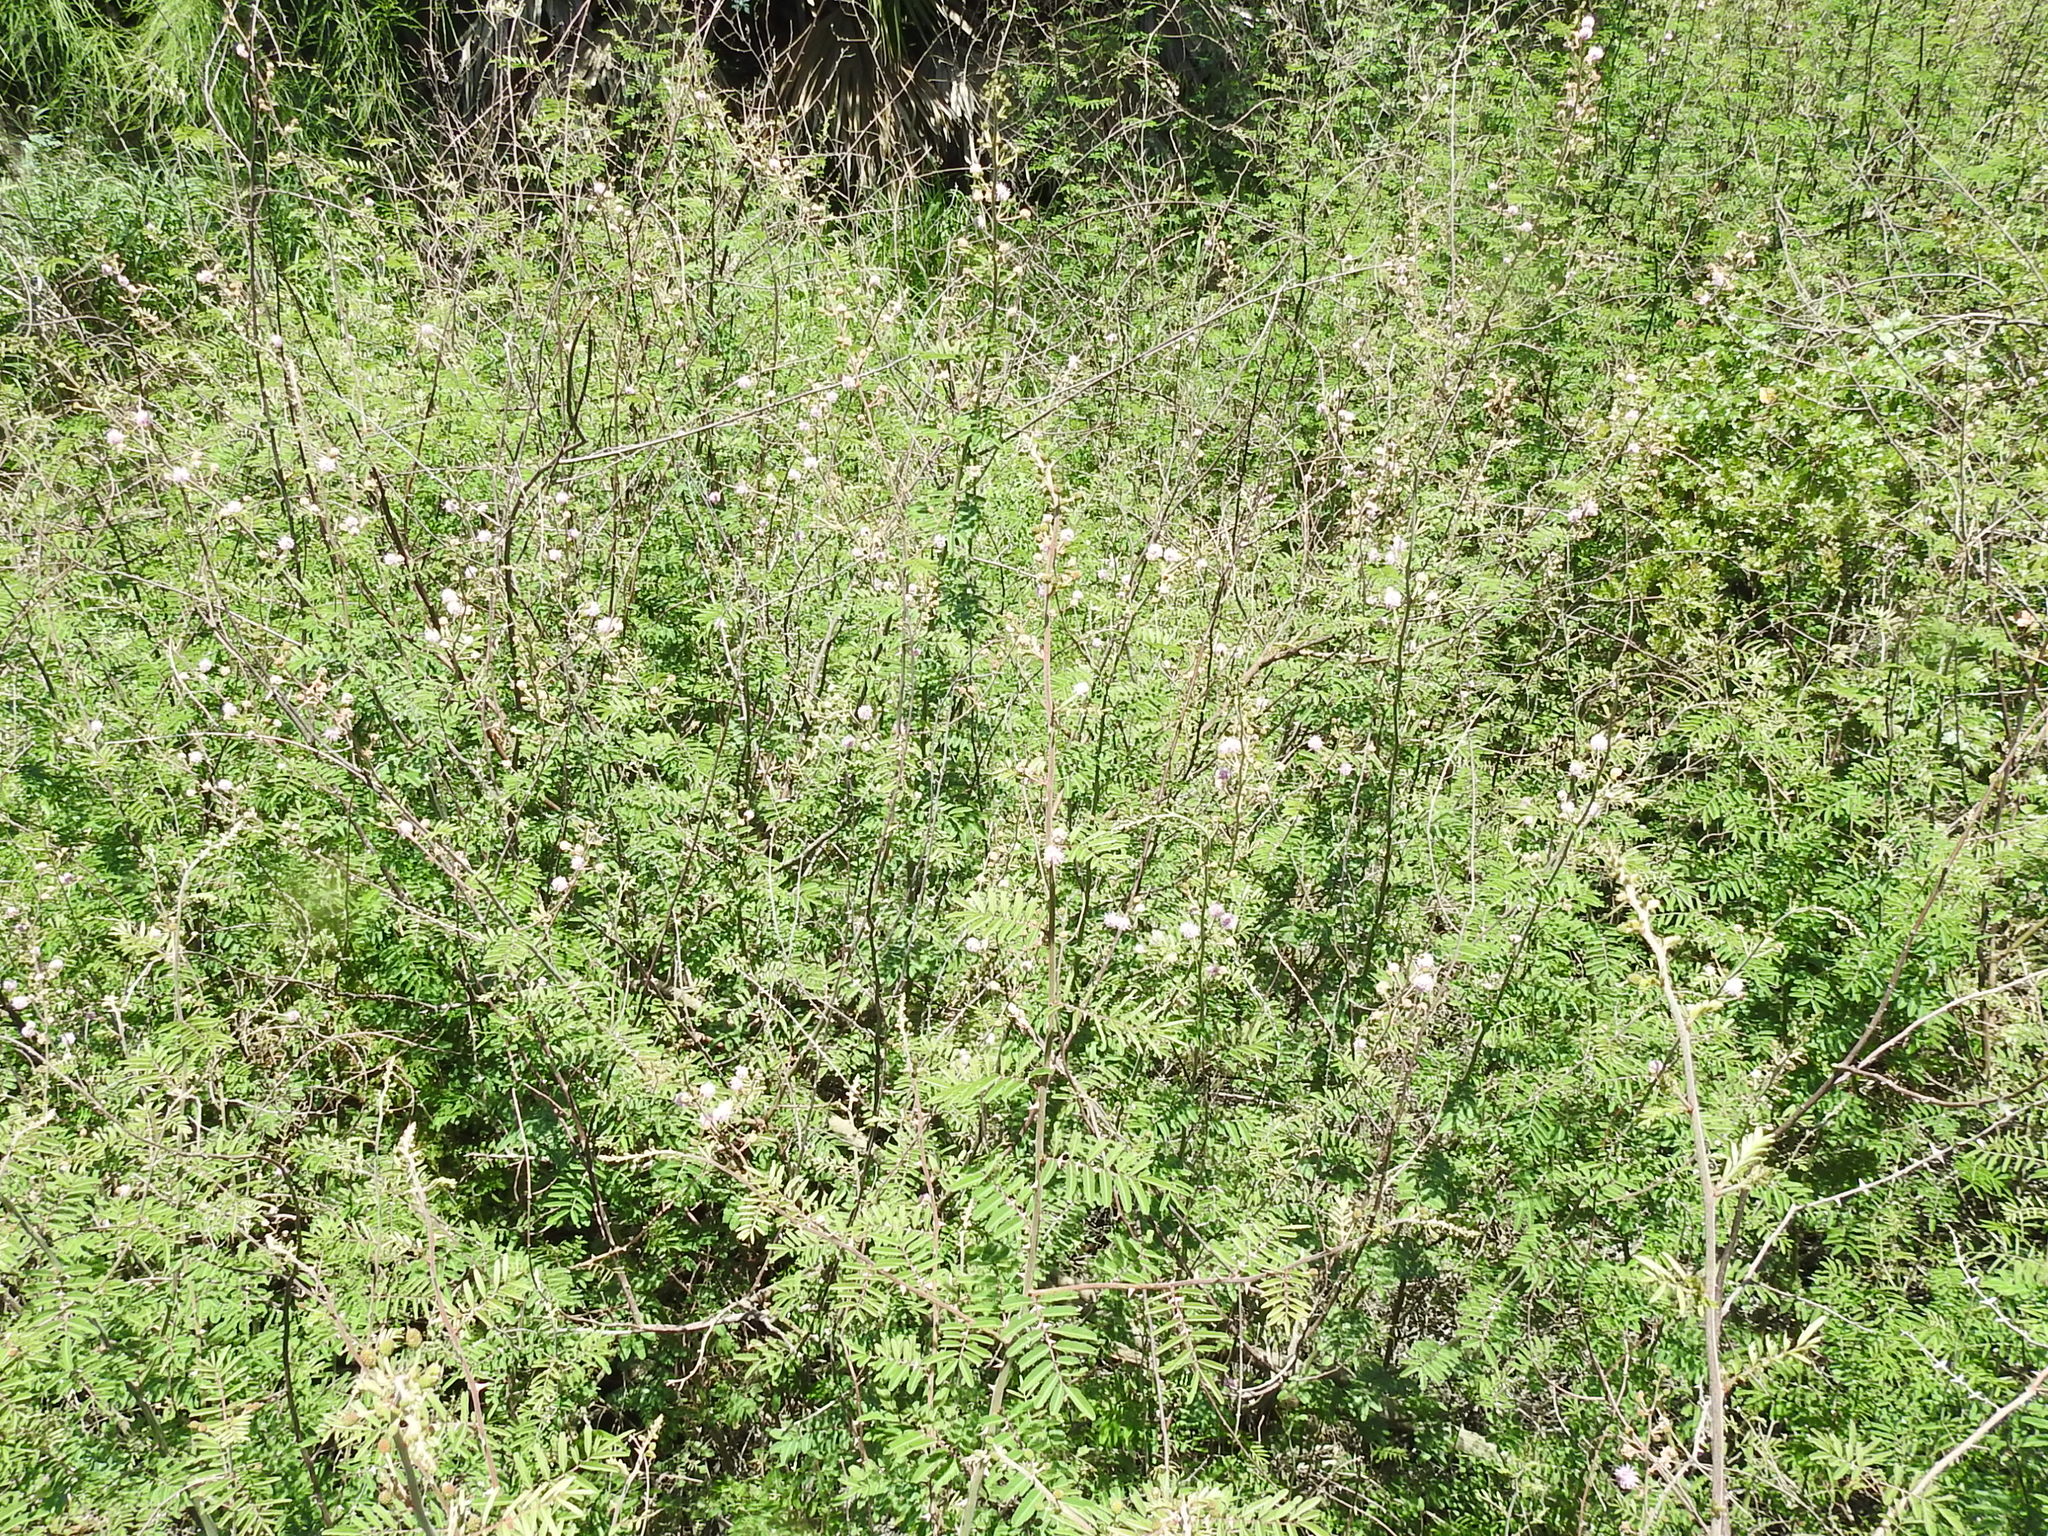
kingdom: Plantae
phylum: Tracheophyta
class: Magnoliopsida
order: Fabales
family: Fabaceae
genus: Mimosa
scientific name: Mimosa pigra
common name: Black mimosa
